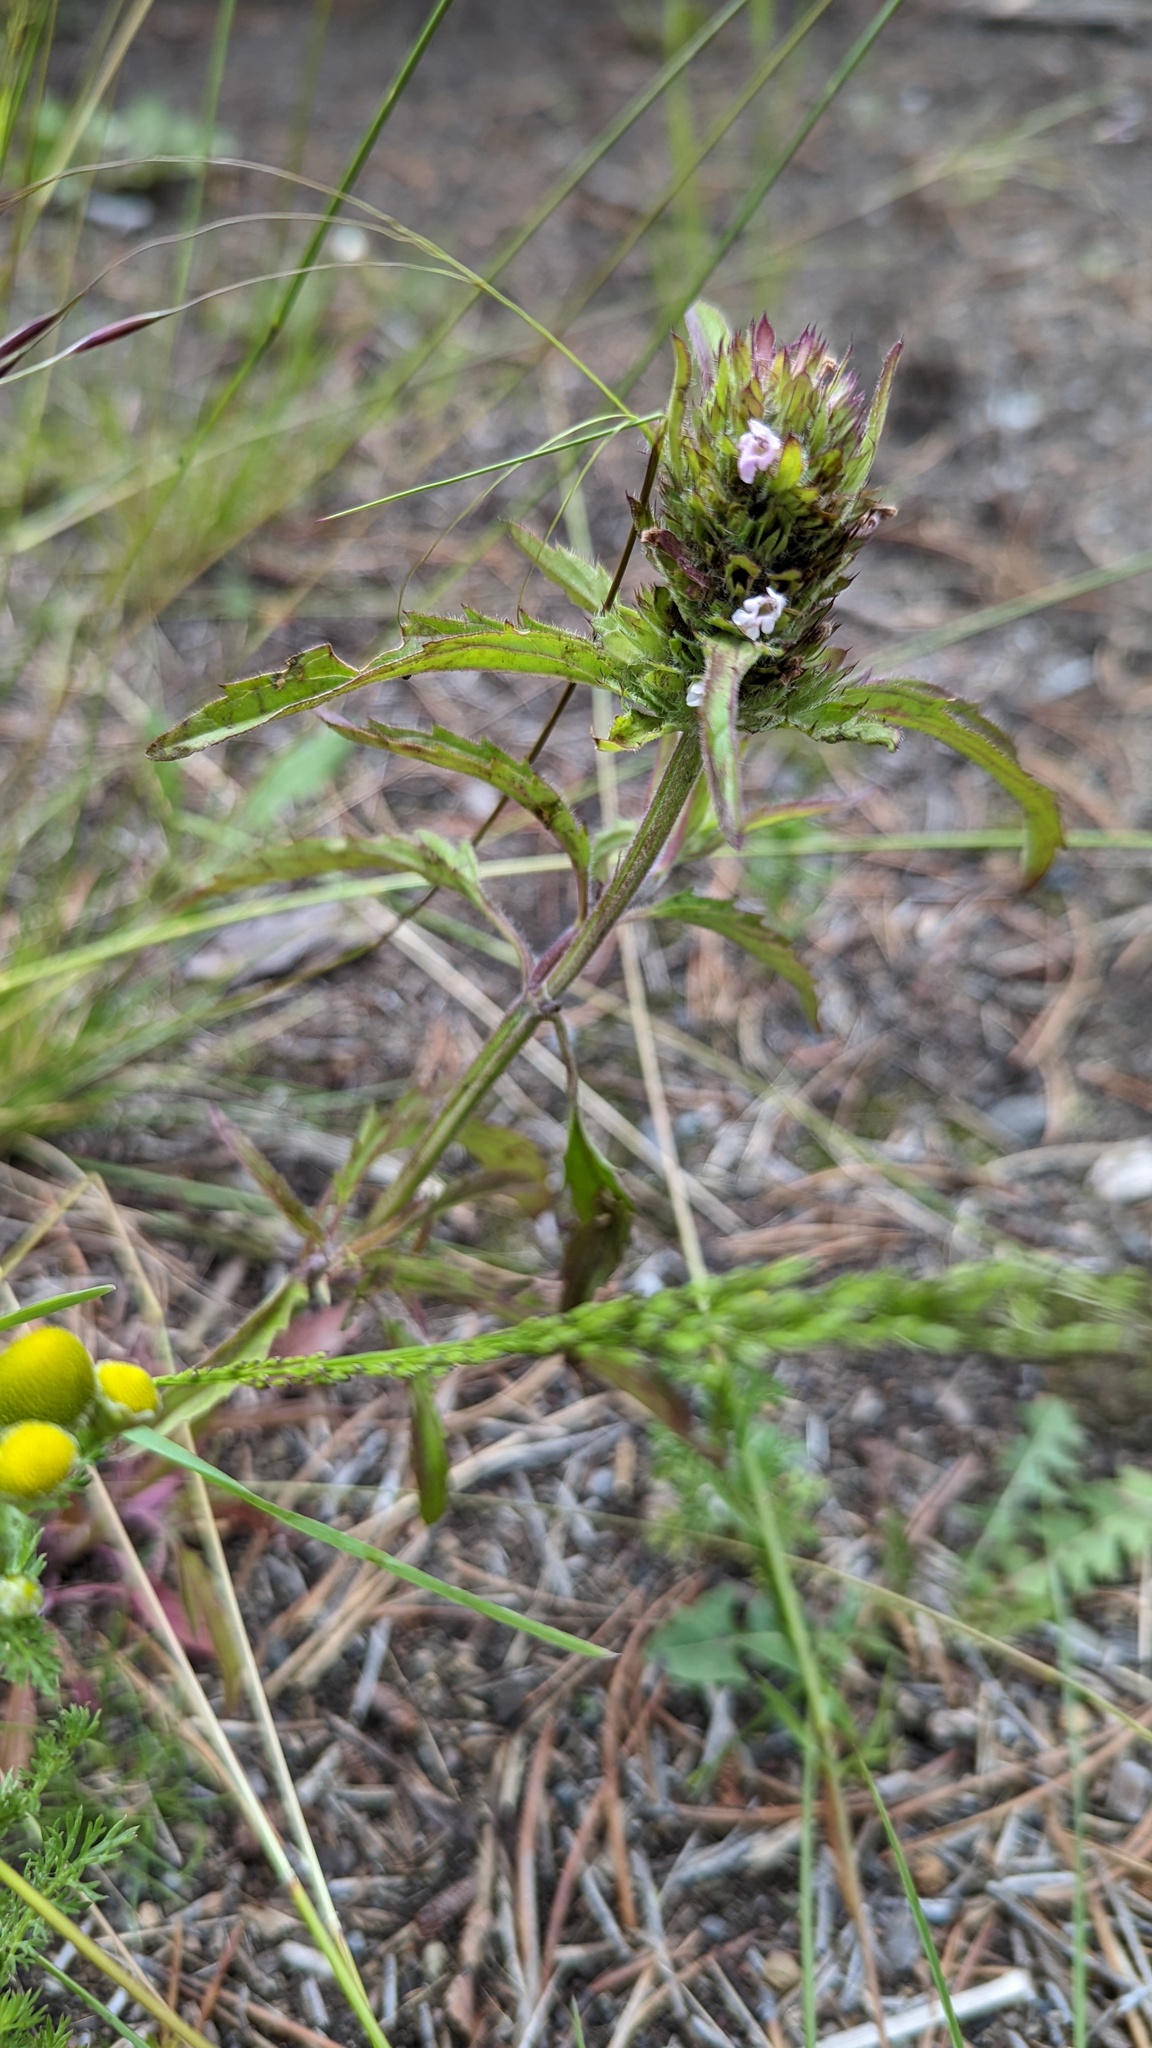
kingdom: Plantae
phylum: Tracheophyta
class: Magnoliopsida
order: Lamiales
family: Lamiaceae
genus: Dracocephalum
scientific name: Dracocephalum parviflorum
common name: American dragonhead
